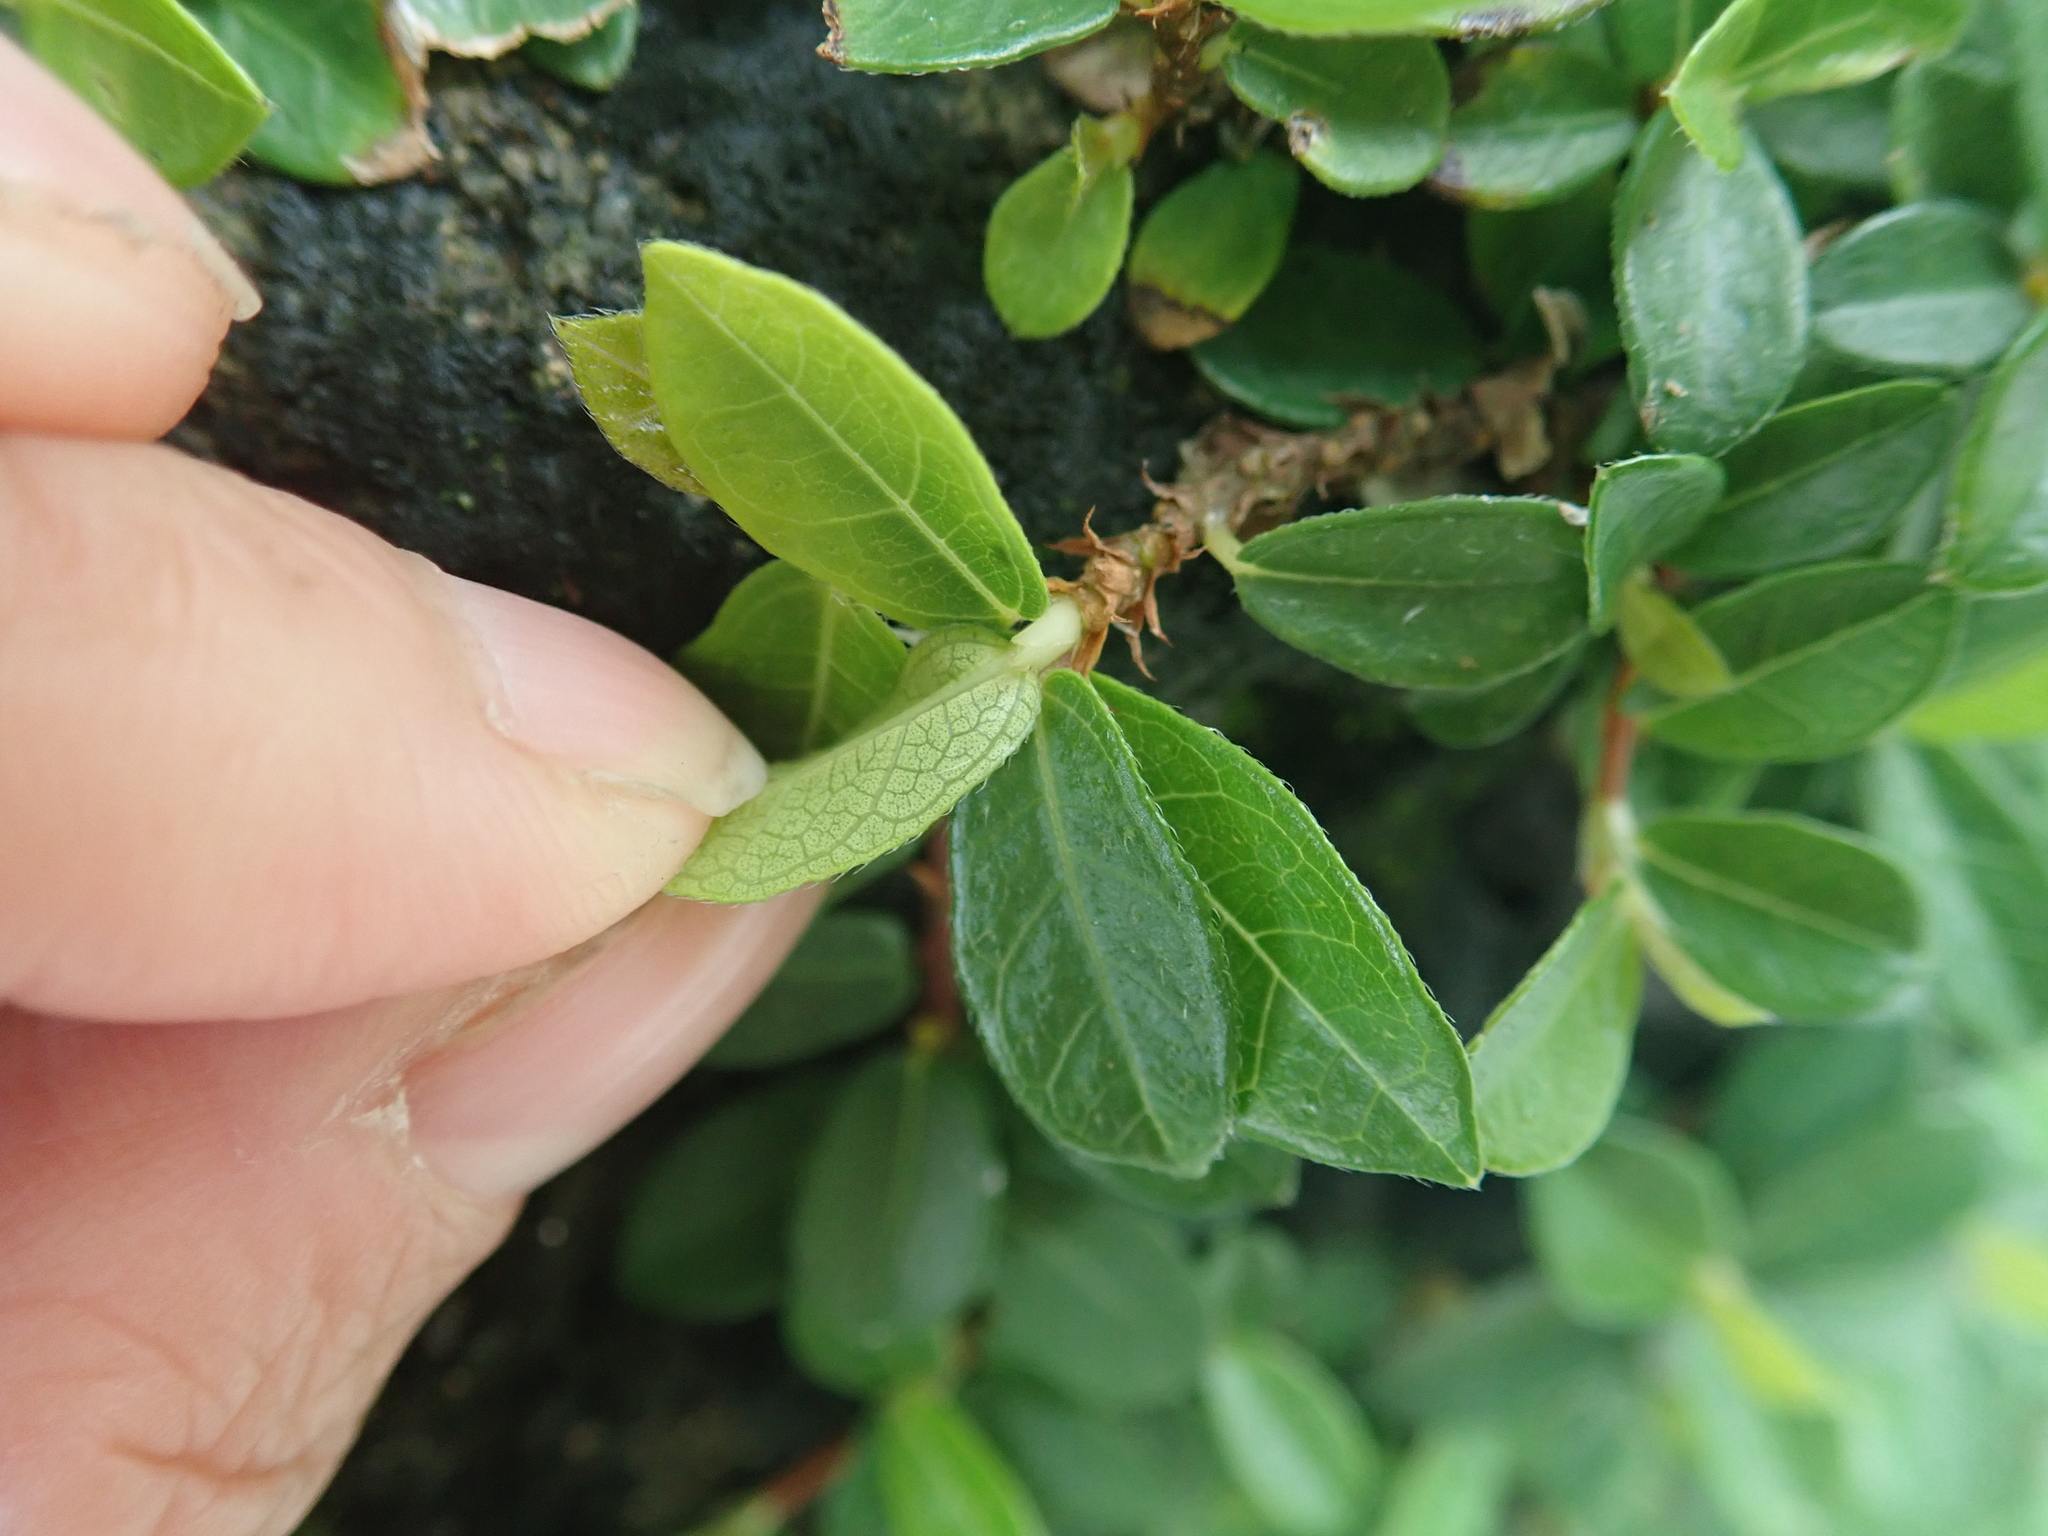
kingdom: Plantae
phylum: Tracheophyta
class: Magnoliopsida
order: Rosales
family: Moraceae
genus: Ficus
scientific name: Ficus vaccinioides
